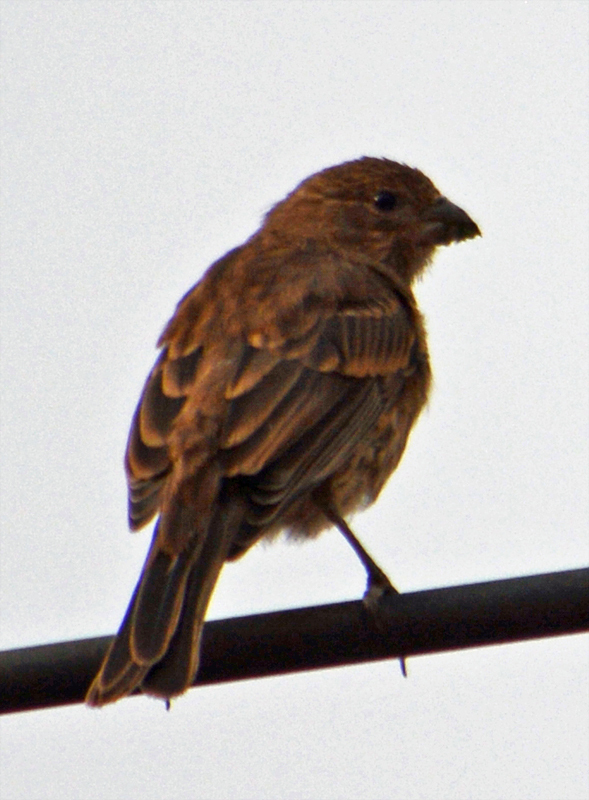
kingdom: Animalia
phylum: Chordata
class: Aves
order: Passeriformes
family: Fringillidae
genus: Haemorhous
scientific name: Haemorhous mexicanus
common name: House finch
